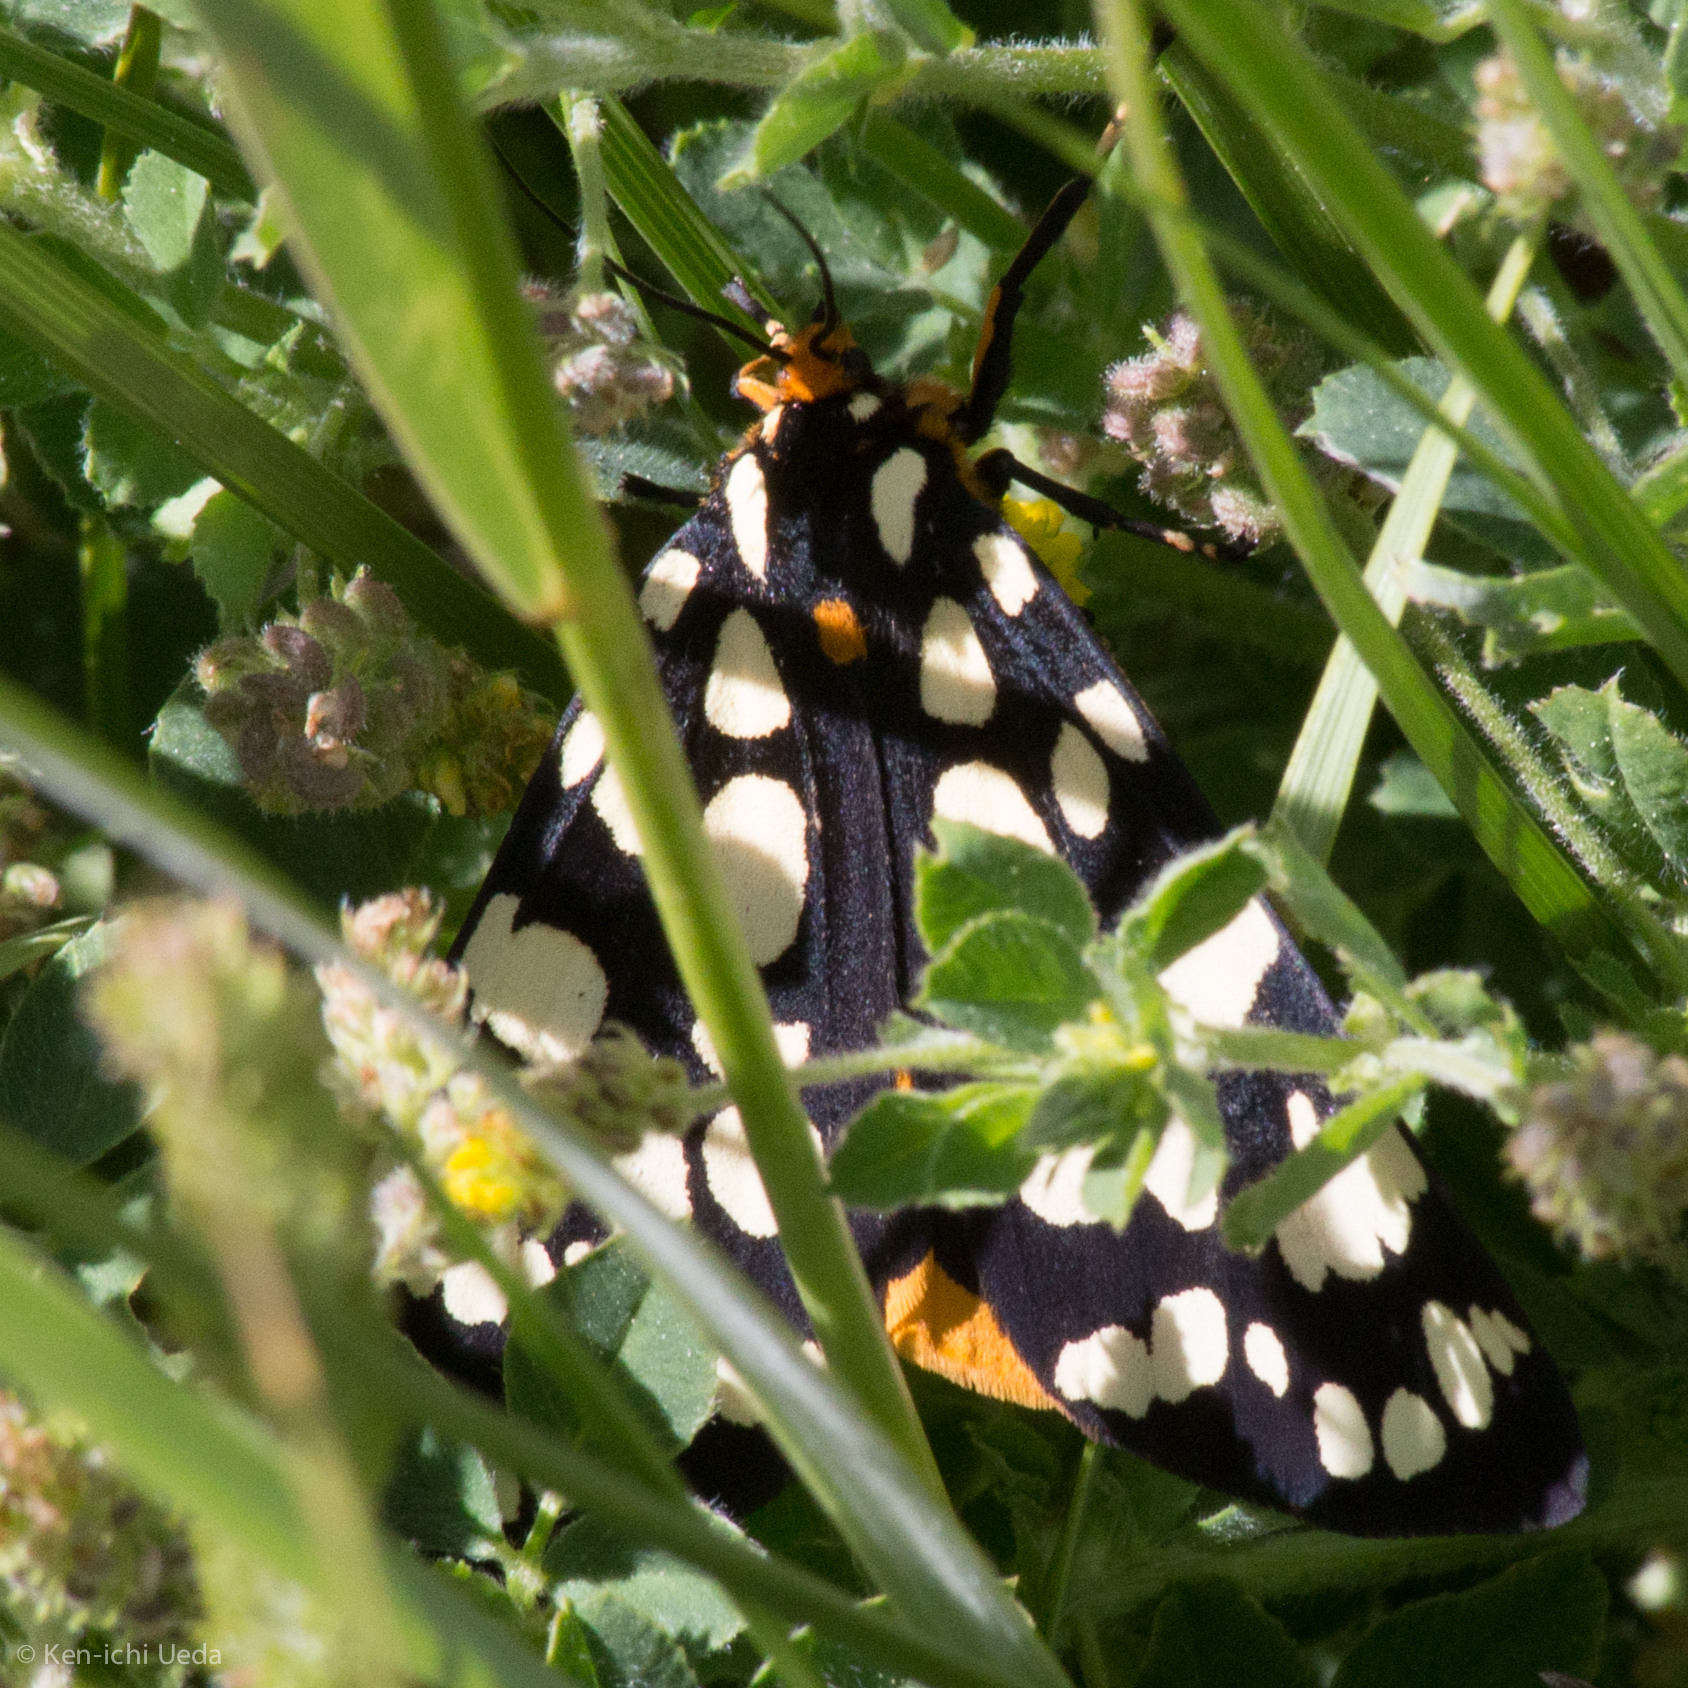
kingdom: Animalia
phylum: Arthropoda
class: Insecta
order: Lepidoptera
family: Erebidae
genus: Arctia
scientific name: Arctia tigrina
